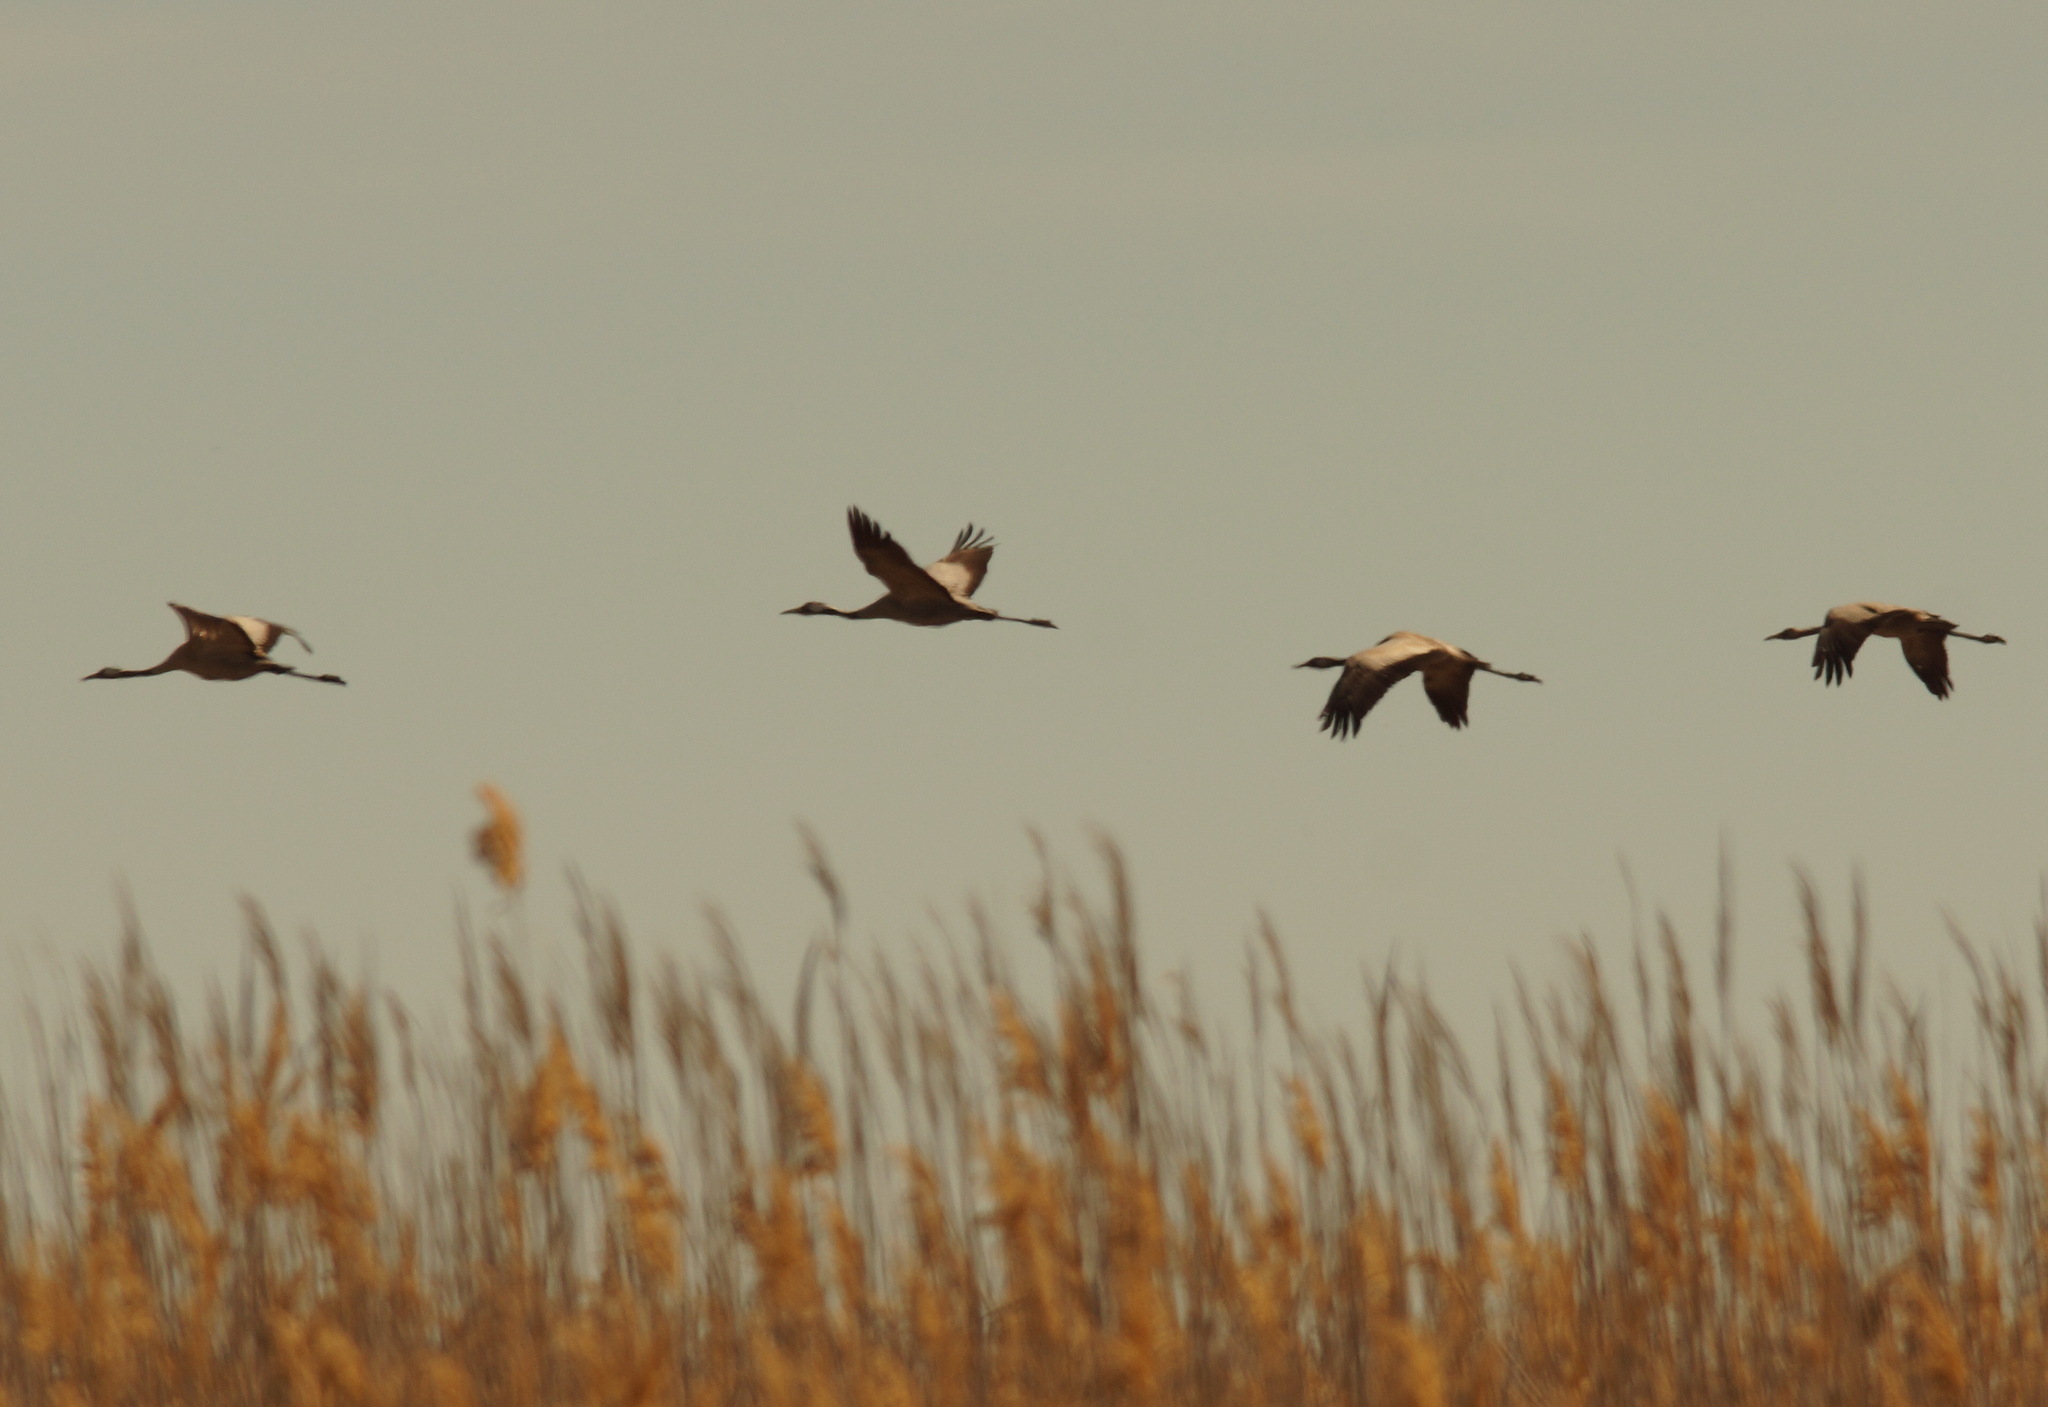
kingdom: Animalia
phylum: Chordata
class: Aves
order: Gruiformes
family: Gruidae
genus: Grus
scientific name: Grus grus
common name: Common crane
